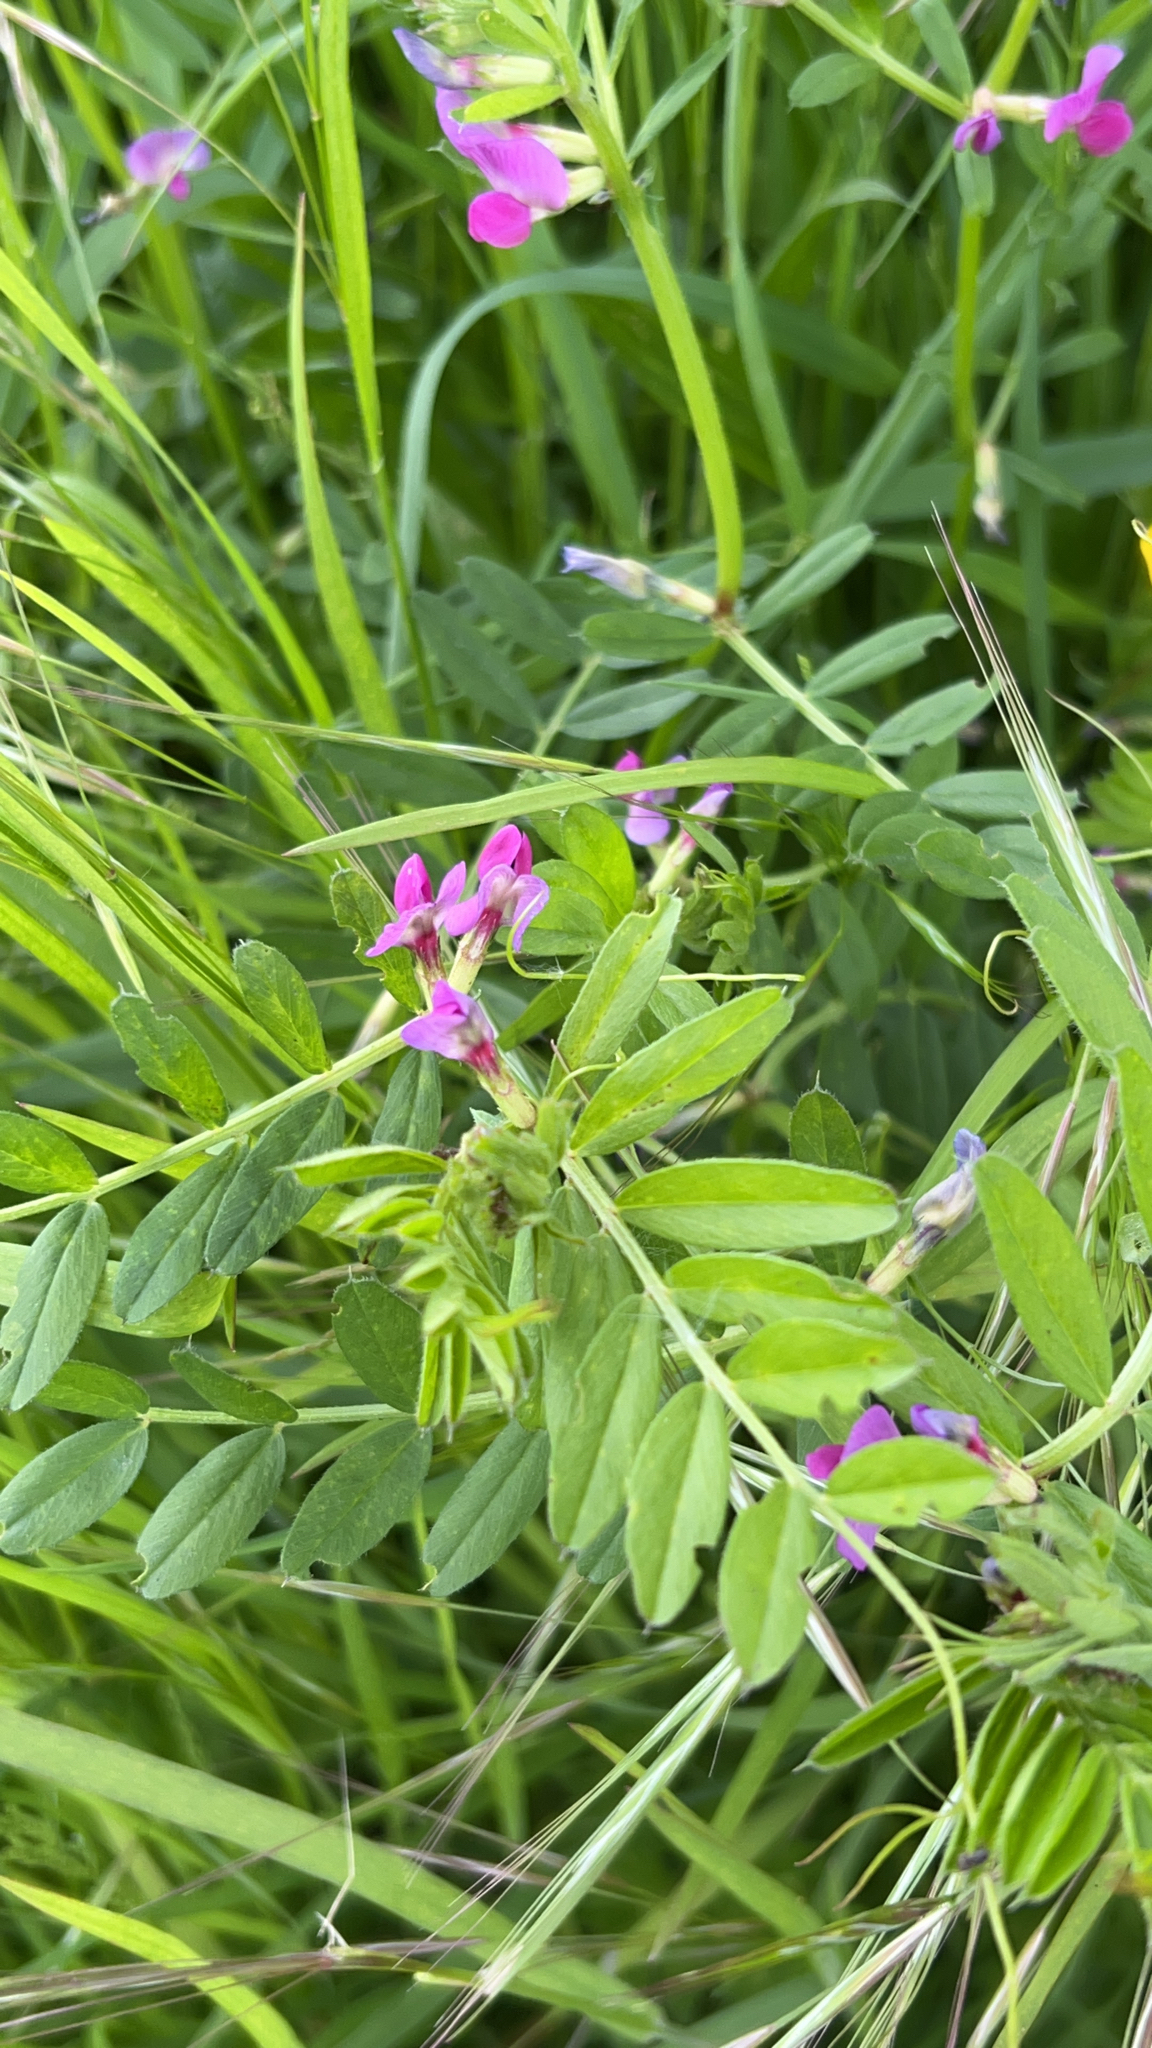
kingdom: Plantae
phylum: Tracheophyta
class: Magnoliopsida
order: Fabales
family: Fabaceae
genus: Vicia
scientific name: Vicia sativa
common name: Garden vetch
